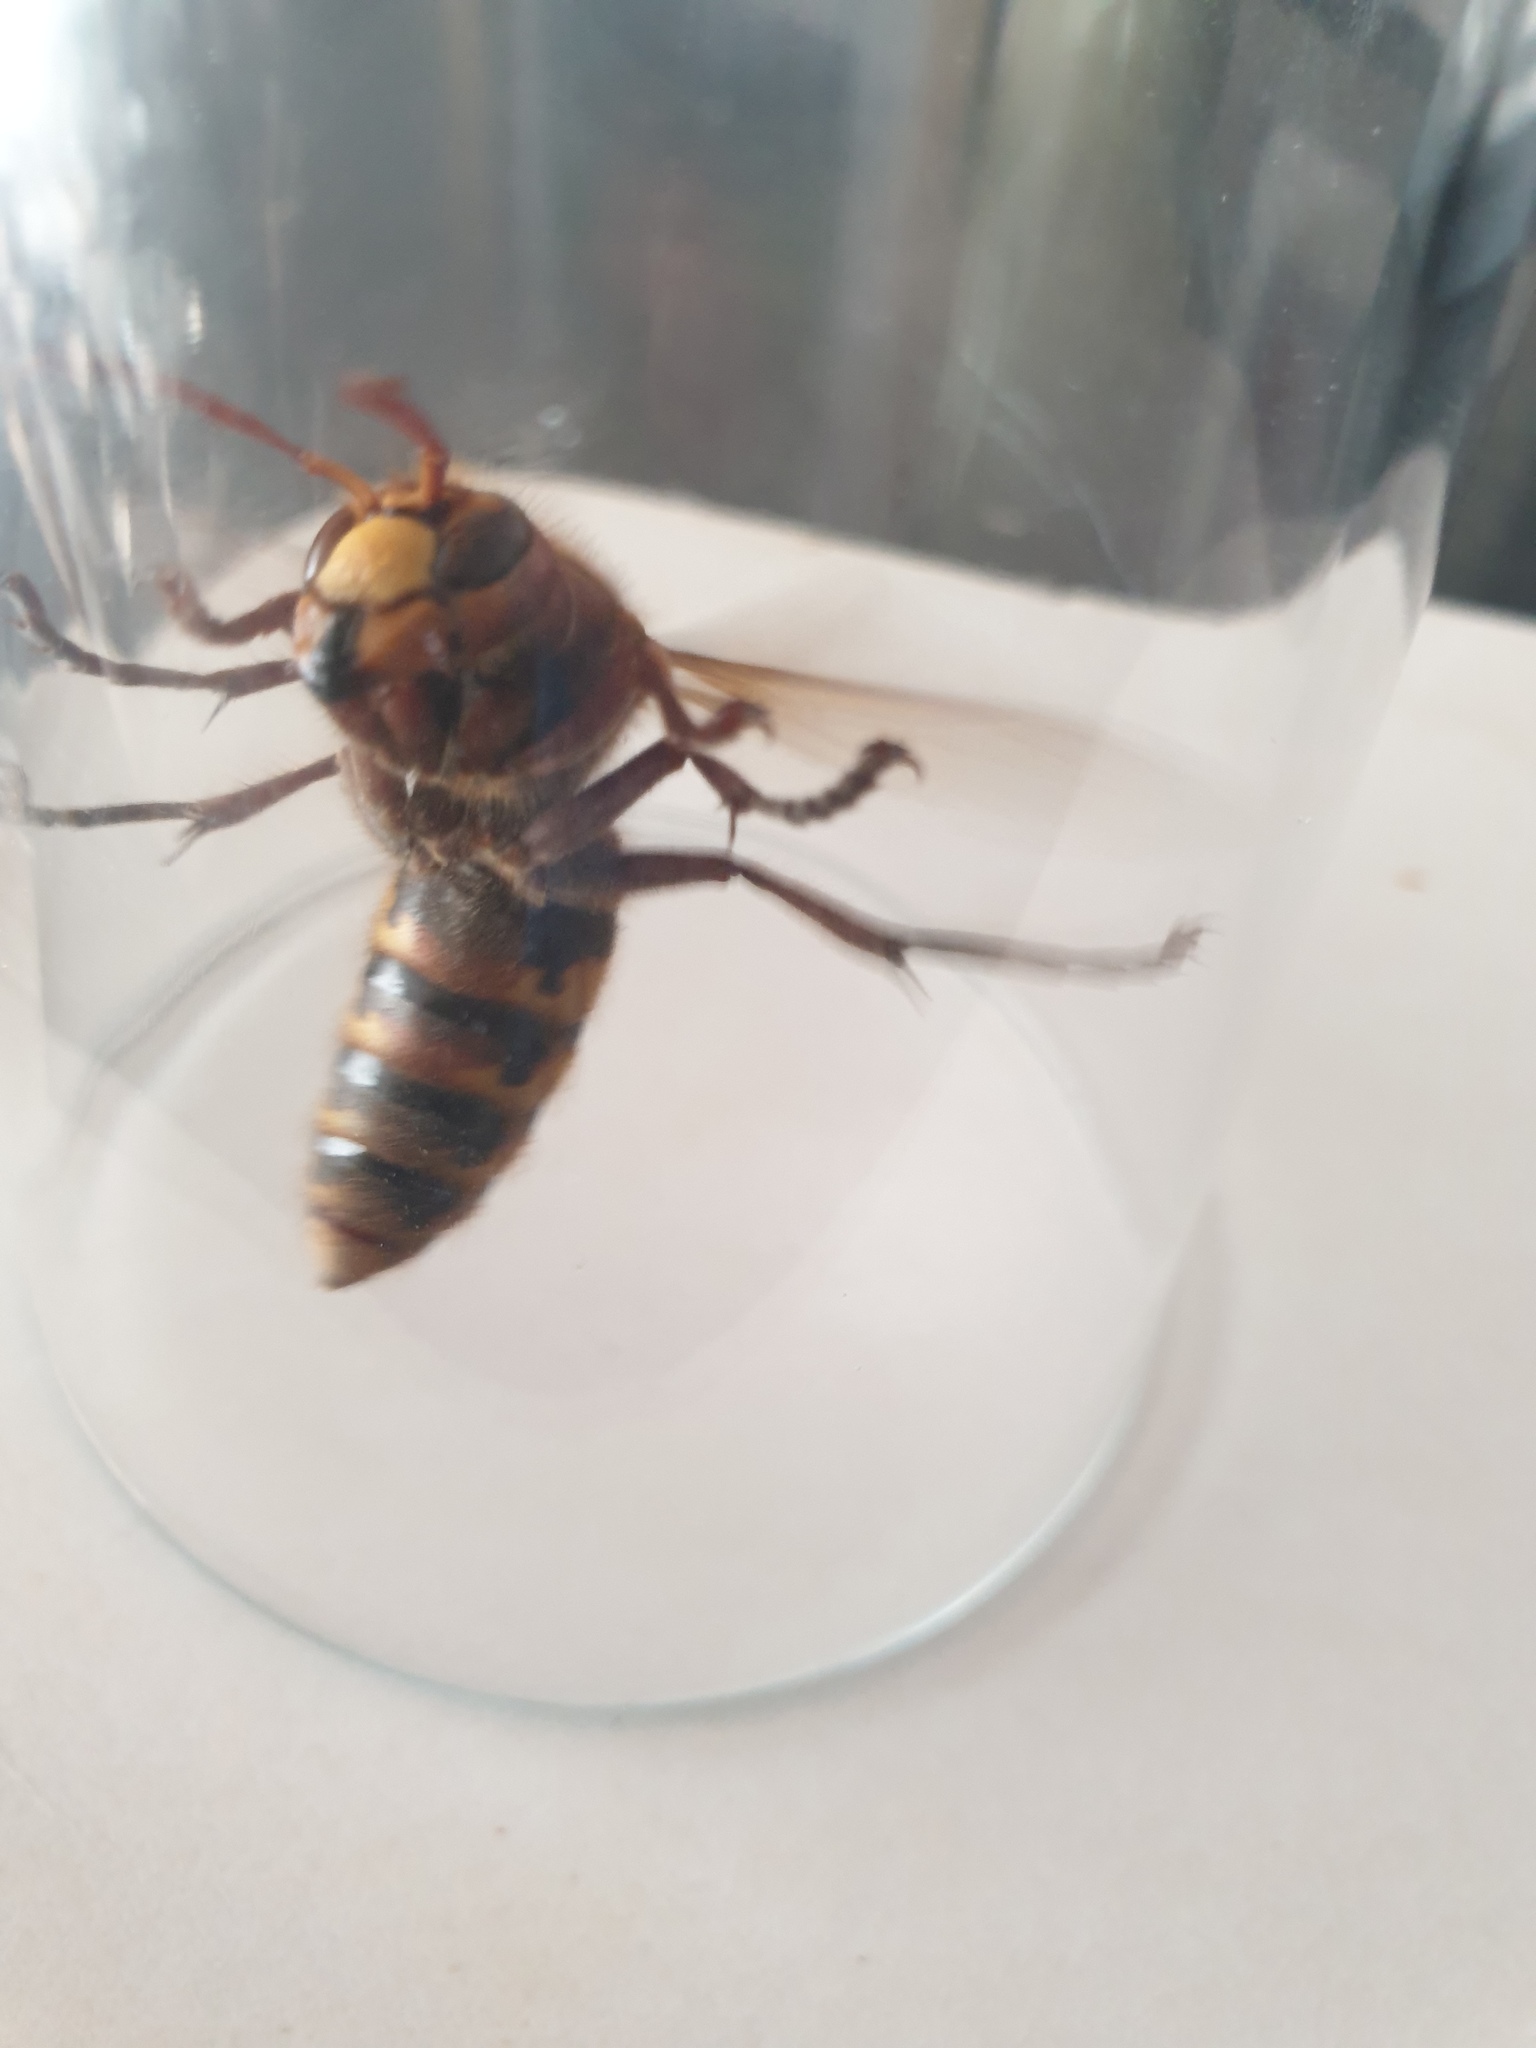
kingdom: Animalia
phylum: Arthropoda
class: Insecta
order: Hymenoptera
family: Vespidae
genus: Vespa
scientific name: Vespa crabro
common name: Hornet
